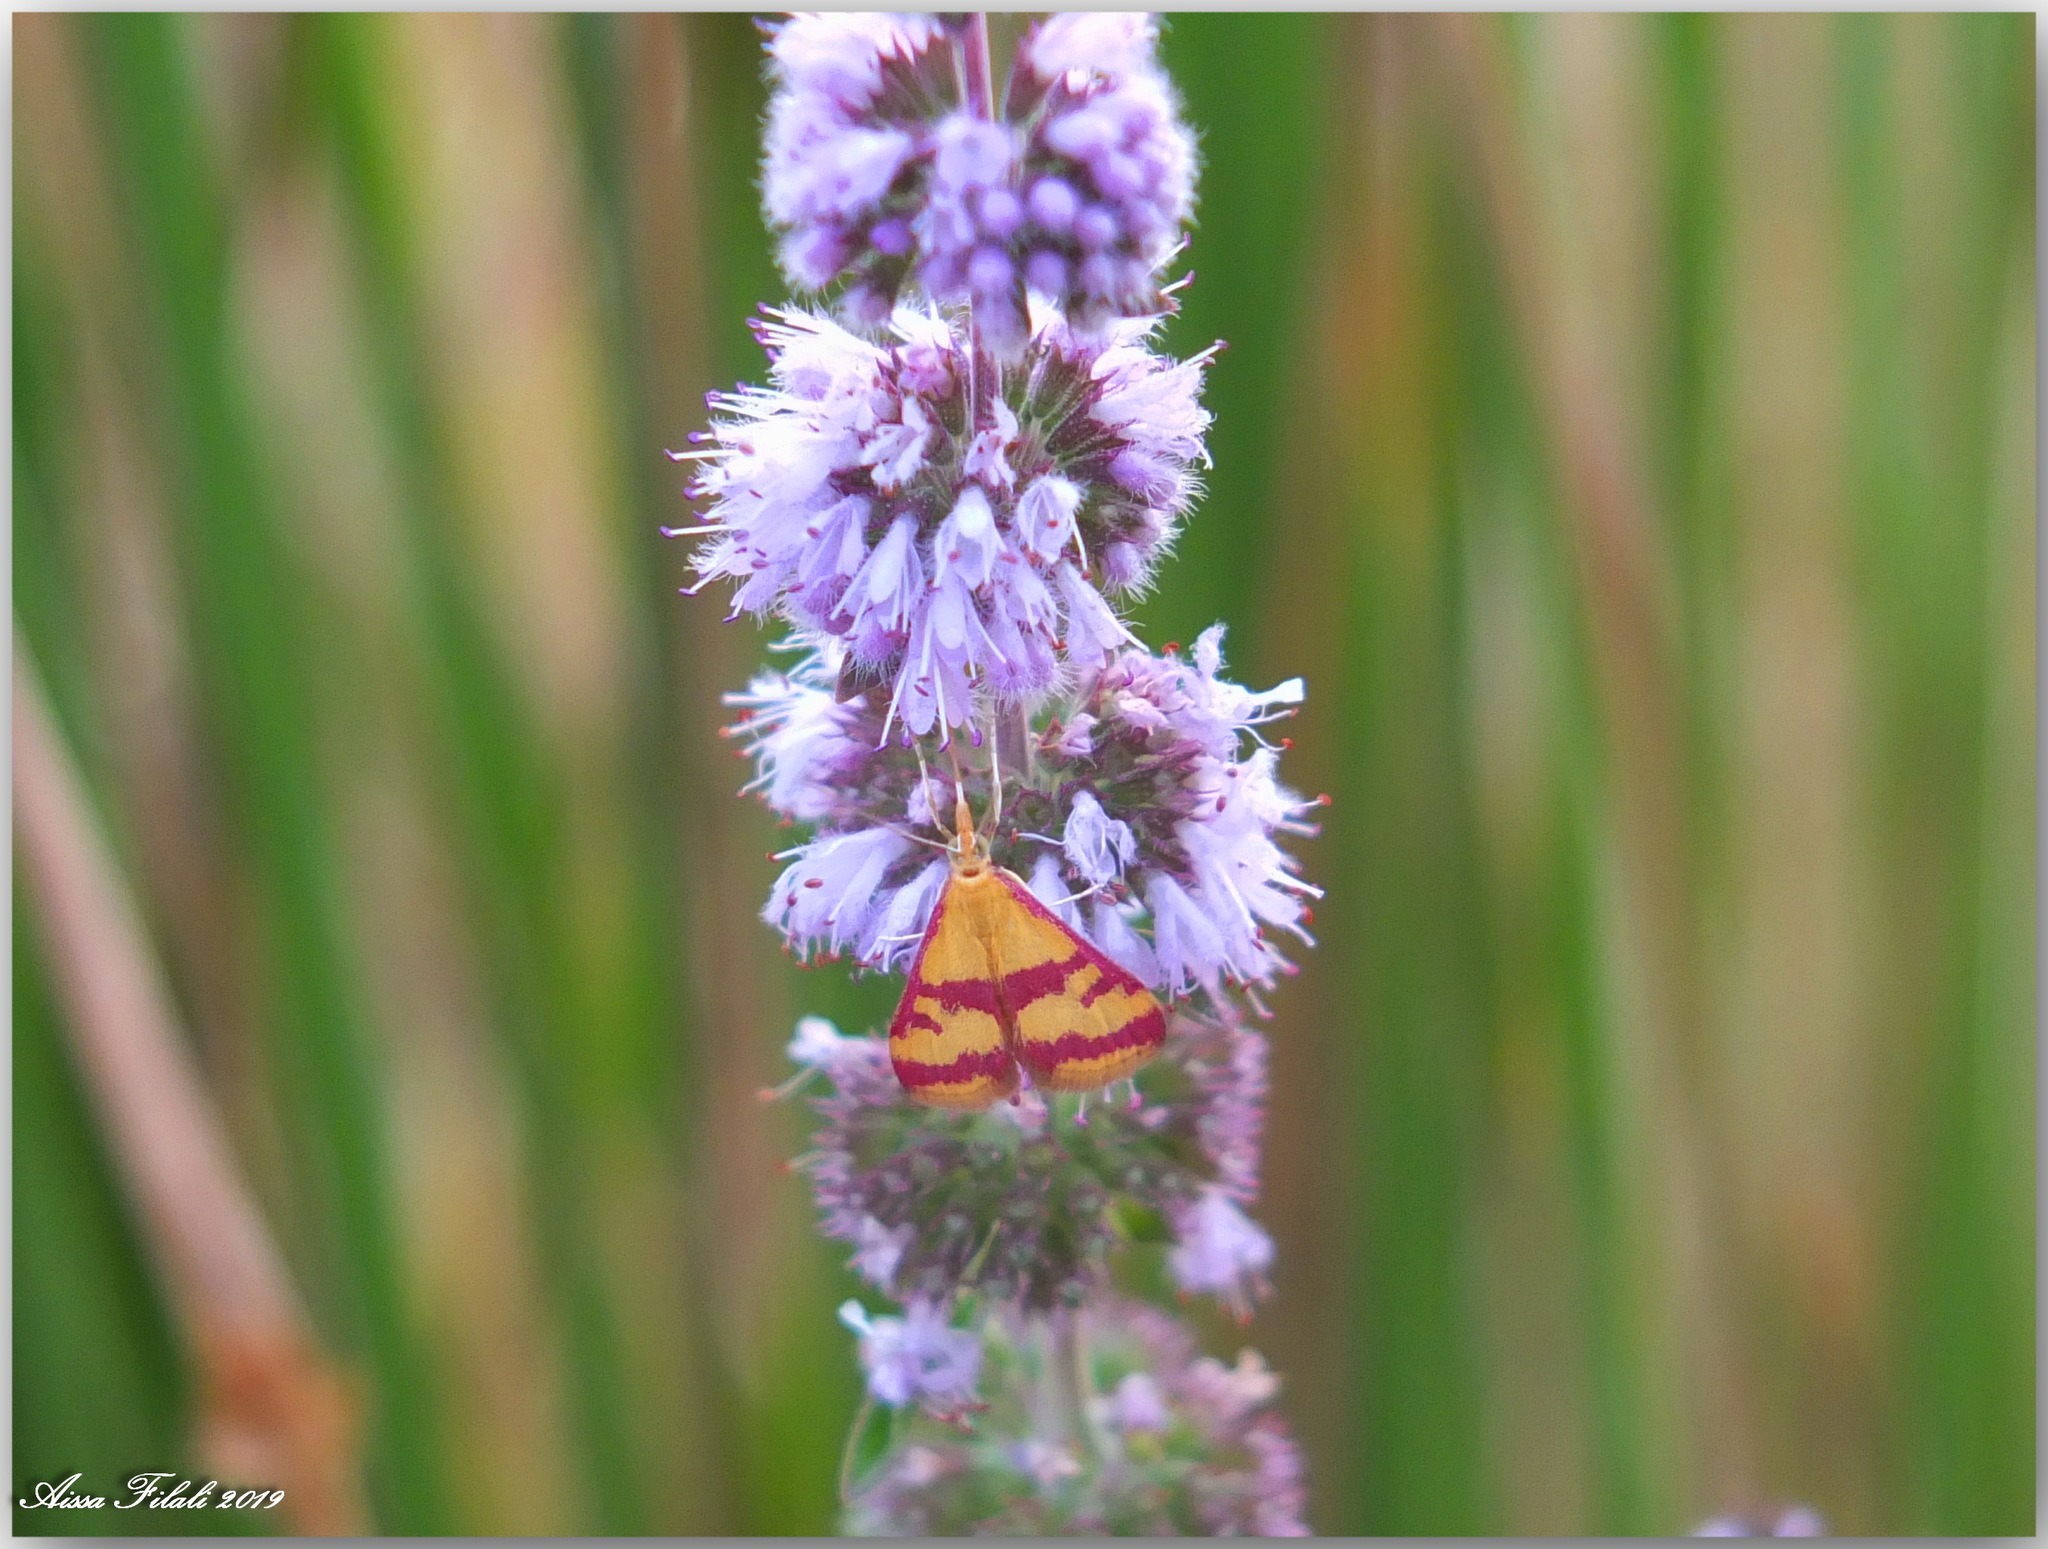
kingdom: Animalia
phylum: Arthropoda
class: Insecta
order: Lepidoptera
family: Crambidae
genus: Pyrausta
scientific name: Pyrausta sanguinalis
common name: Scarce crimson and gold
